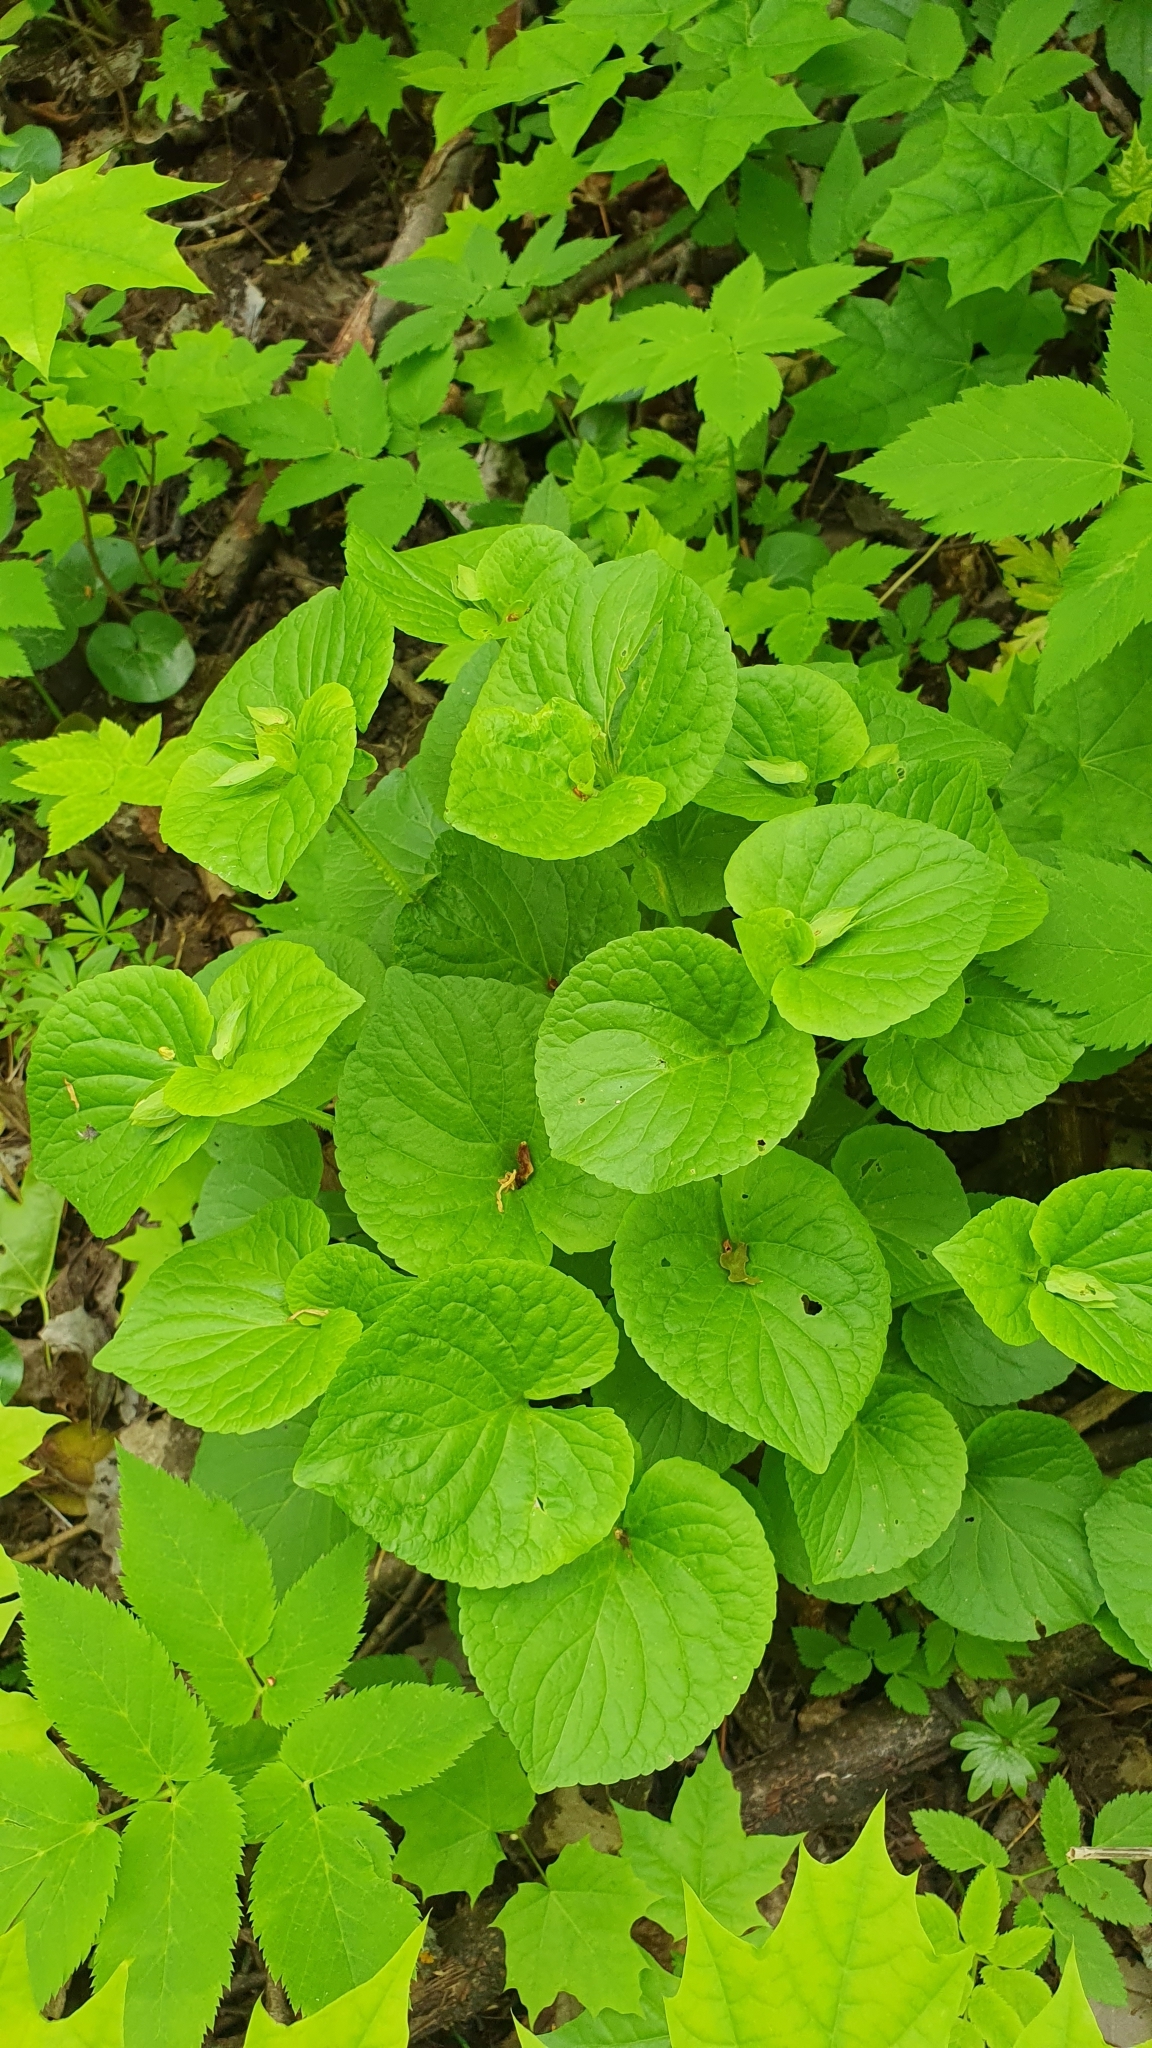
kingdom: Plantae
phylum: Tracheophyta
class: Magnoliopsida
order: Malpighiales
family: Violaceae
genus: Viola
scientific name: Viola mirabilis
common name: Wonder violet
